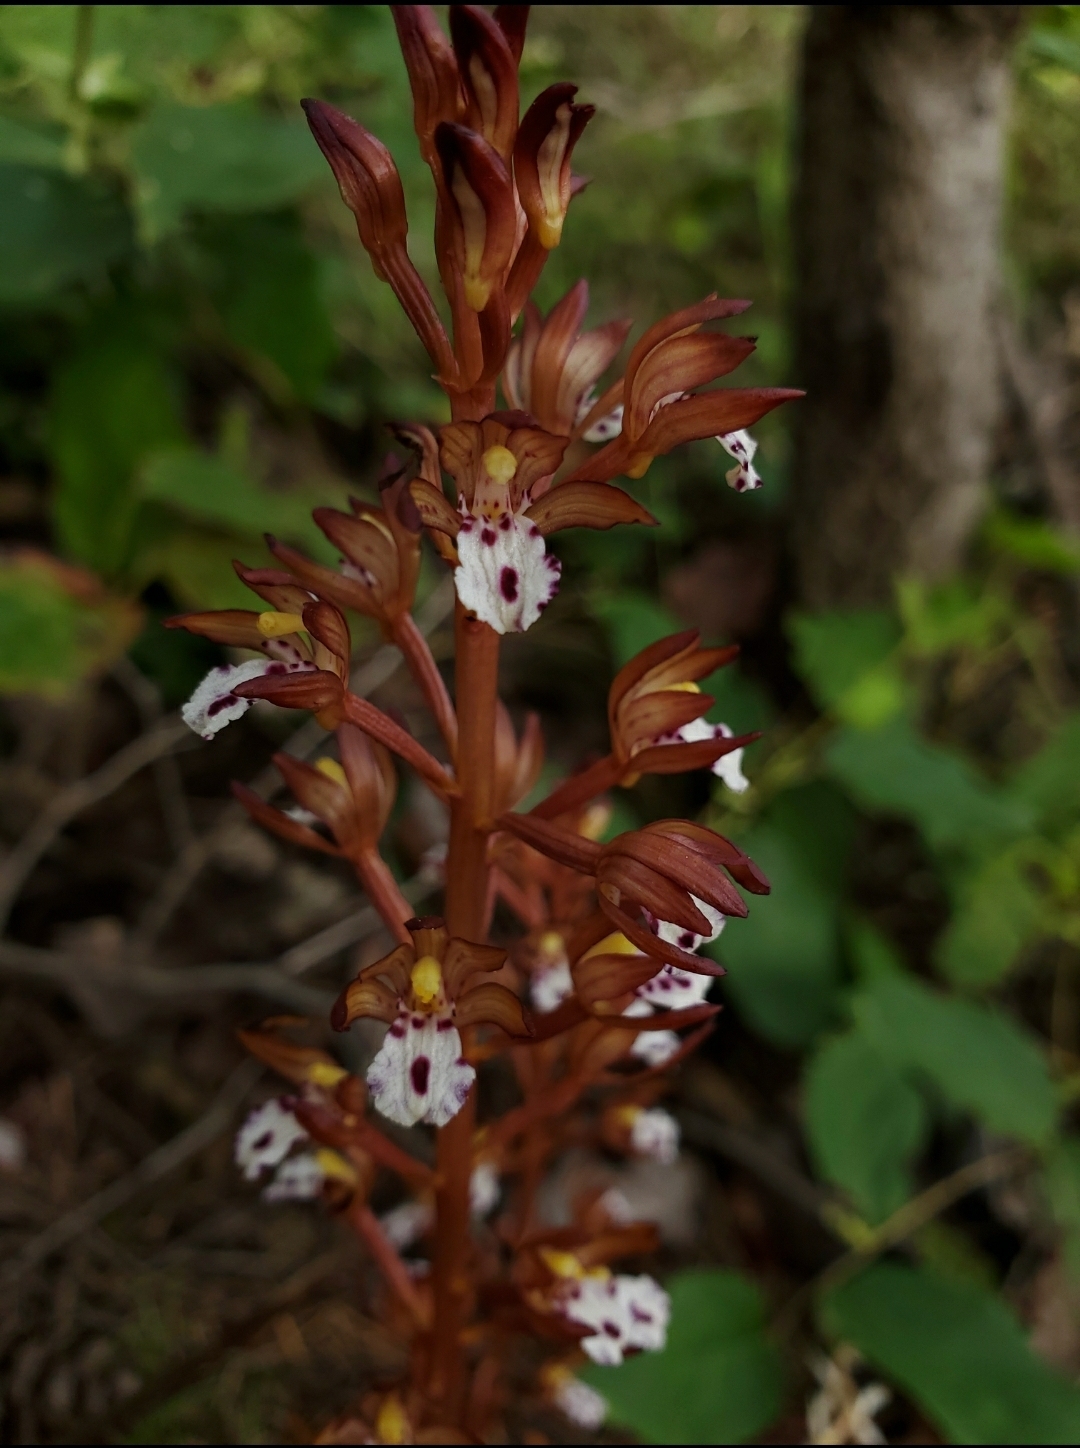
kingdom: Plantae
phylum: Tracheophyta
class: Liliopsida
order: Asparagales
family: Orchidaceae
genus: Corallorhiza
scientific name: Corallorhiza maculata
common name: Spotted coralroot
